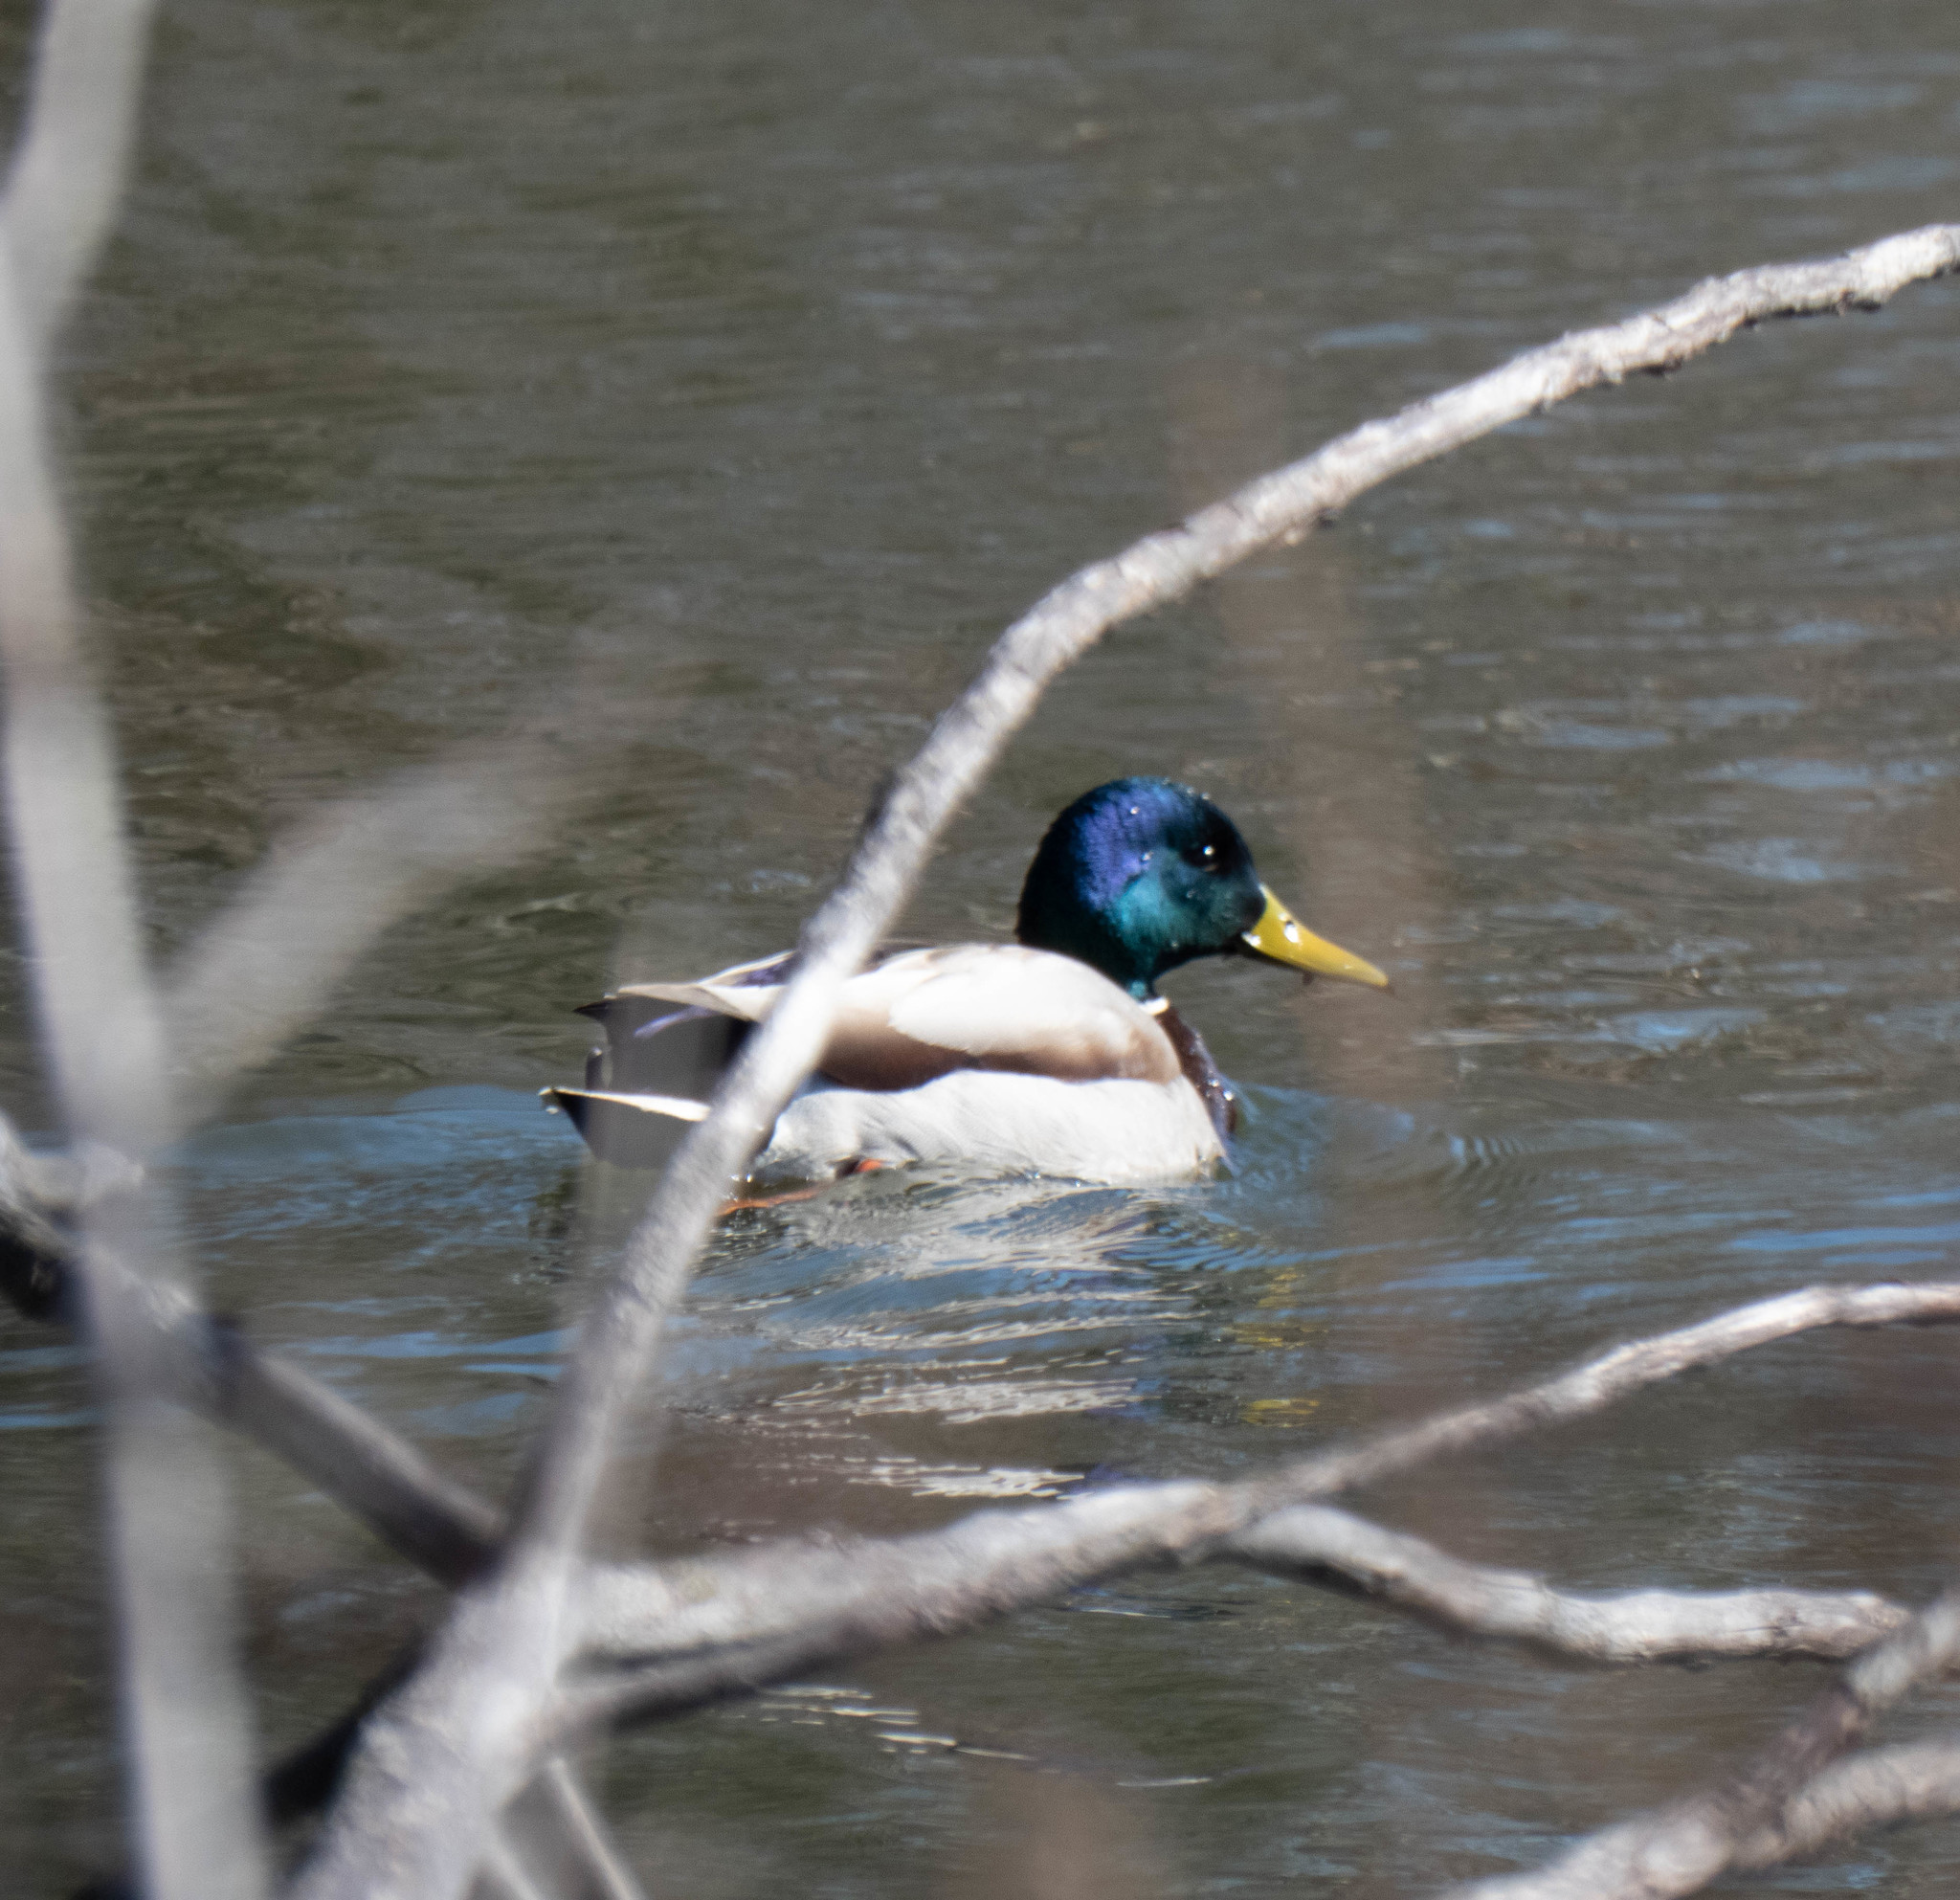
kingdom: Animalia
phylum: Chordata
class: Aves
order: Anseriformes
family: Anatidae
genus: Anas
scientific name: Anas platyrhynchos
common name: Mallard
